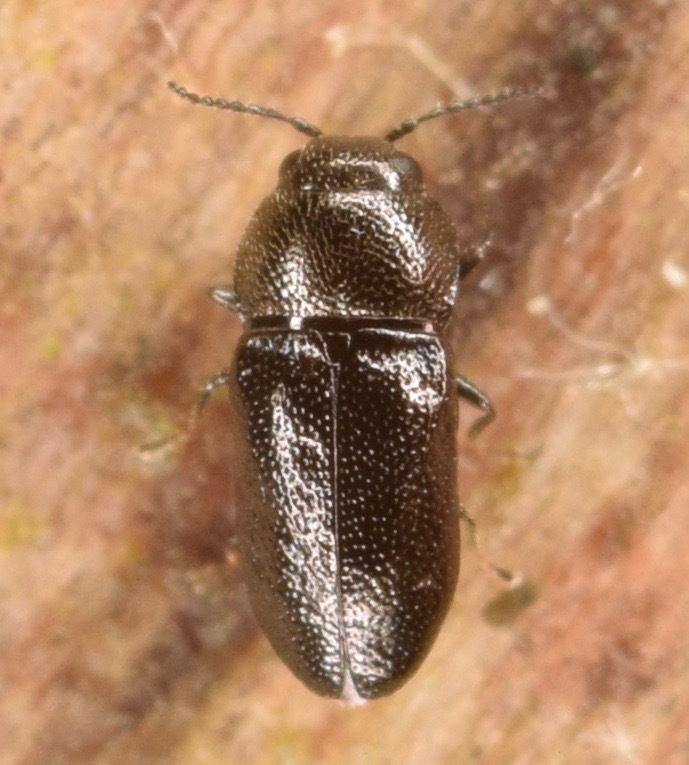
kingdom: Animalia
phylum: Arthropoda
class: Insecta
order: Coleoptera
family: Buprestidae
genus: Mastogenius
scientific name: Mastogenius crenulatus
